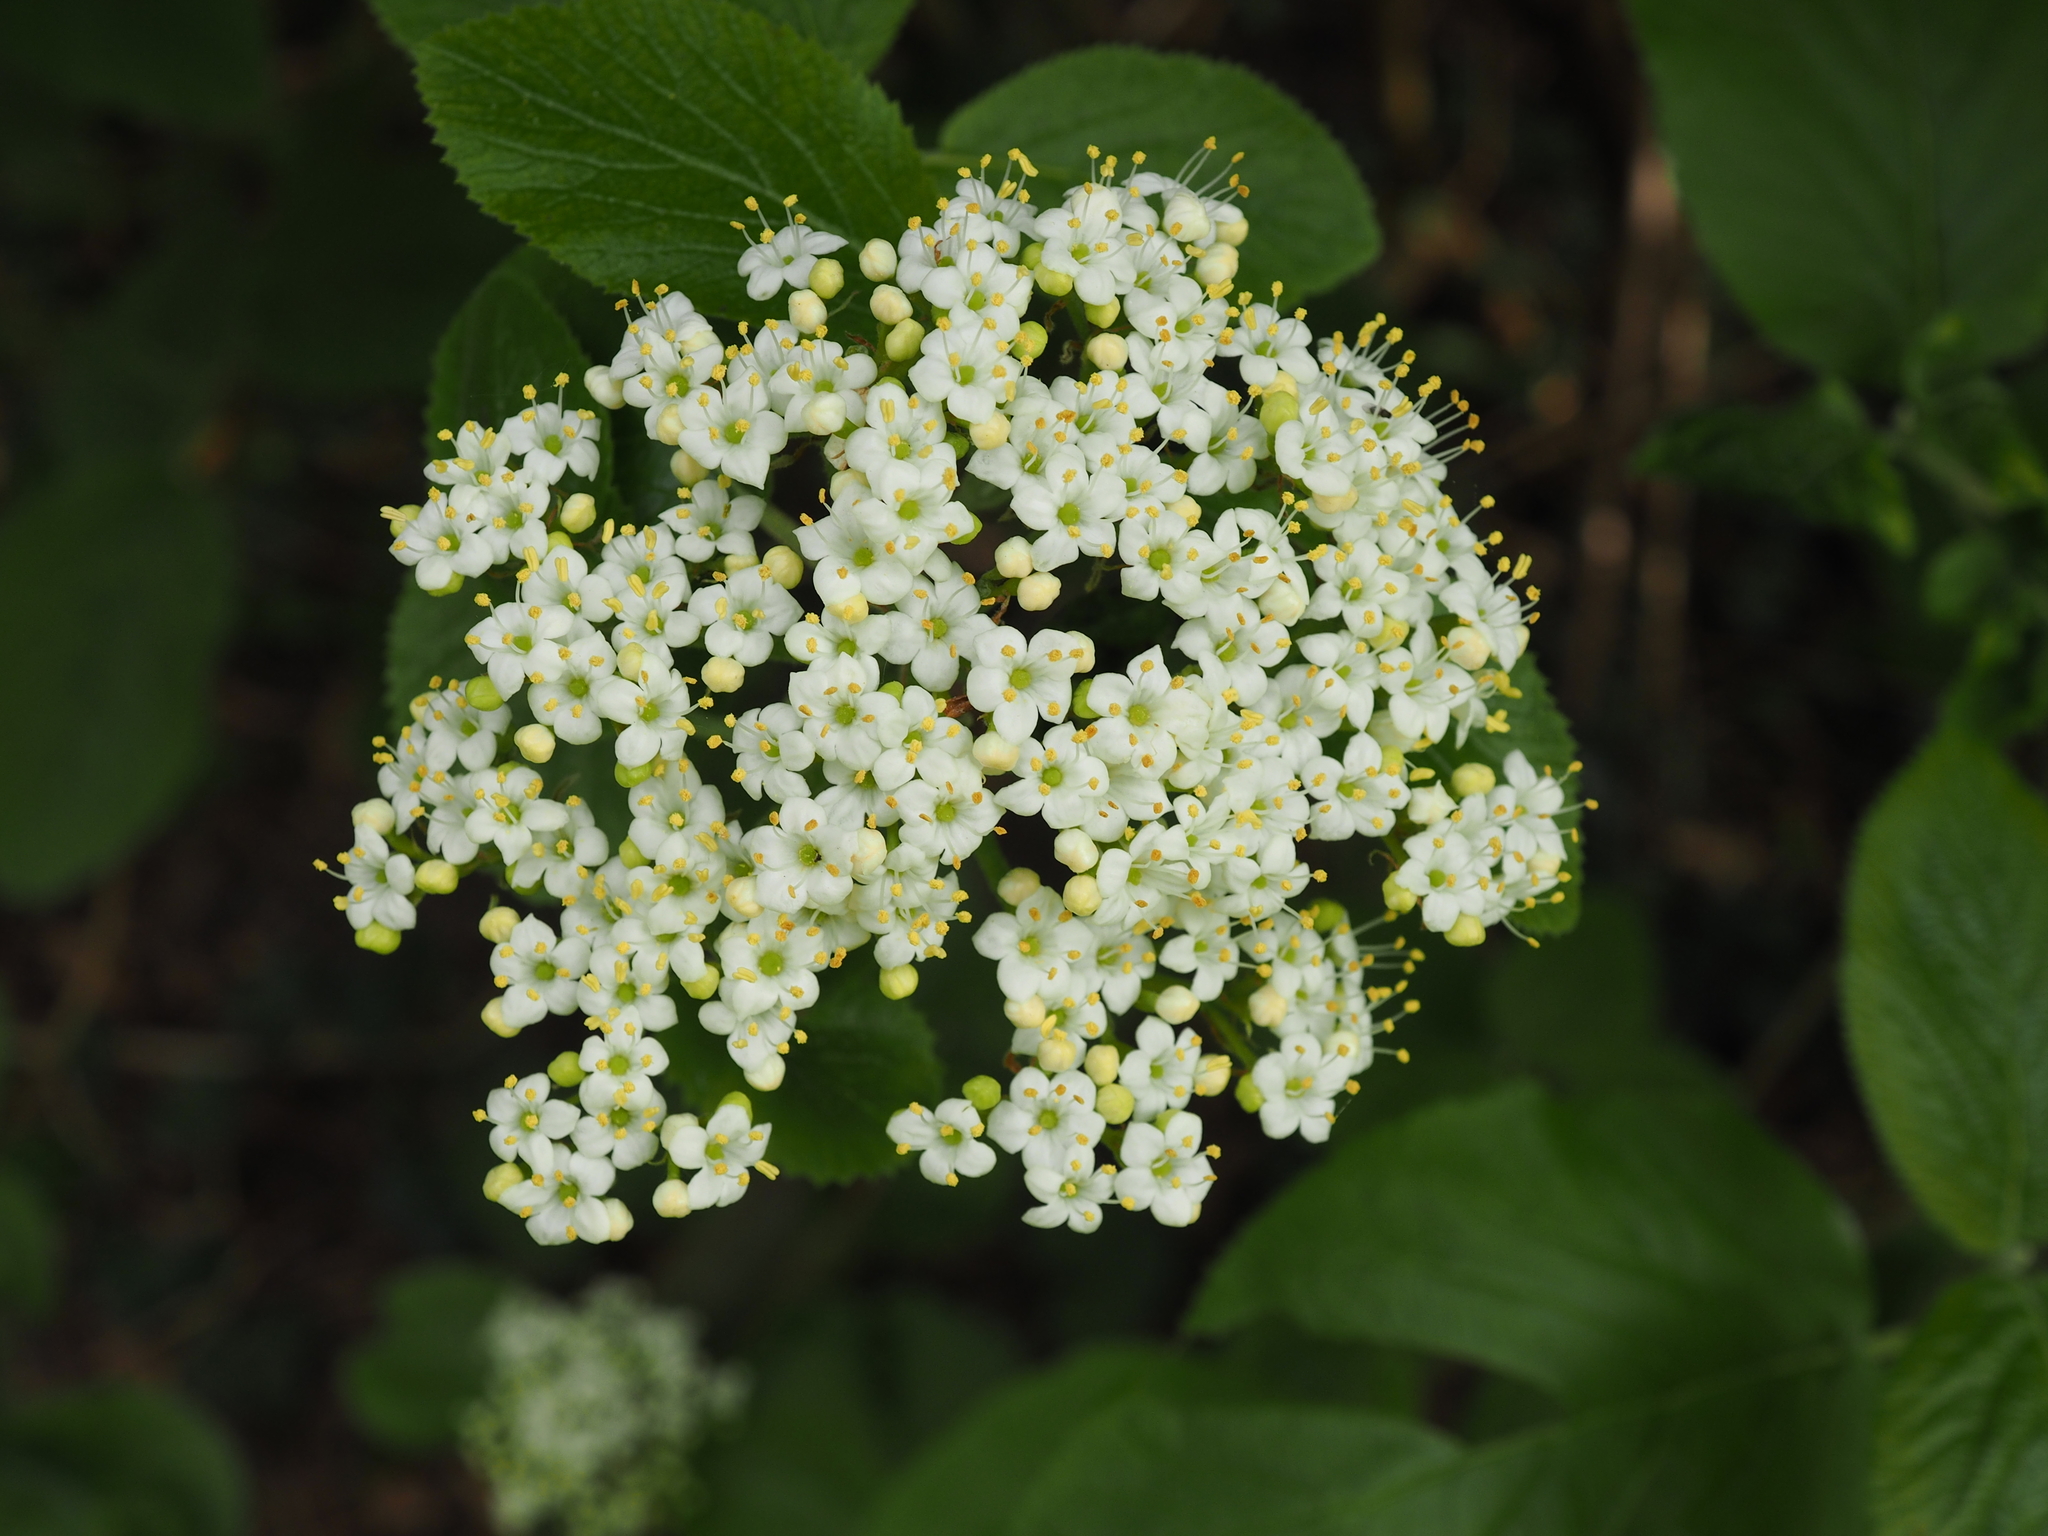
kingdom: Plantae
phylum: Tracheophyta
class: Magnoliopsida
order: Dipsacales
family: Viburnaceae
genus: Viburnum
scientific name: Viburnum lantana
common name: Wayfaring tree
